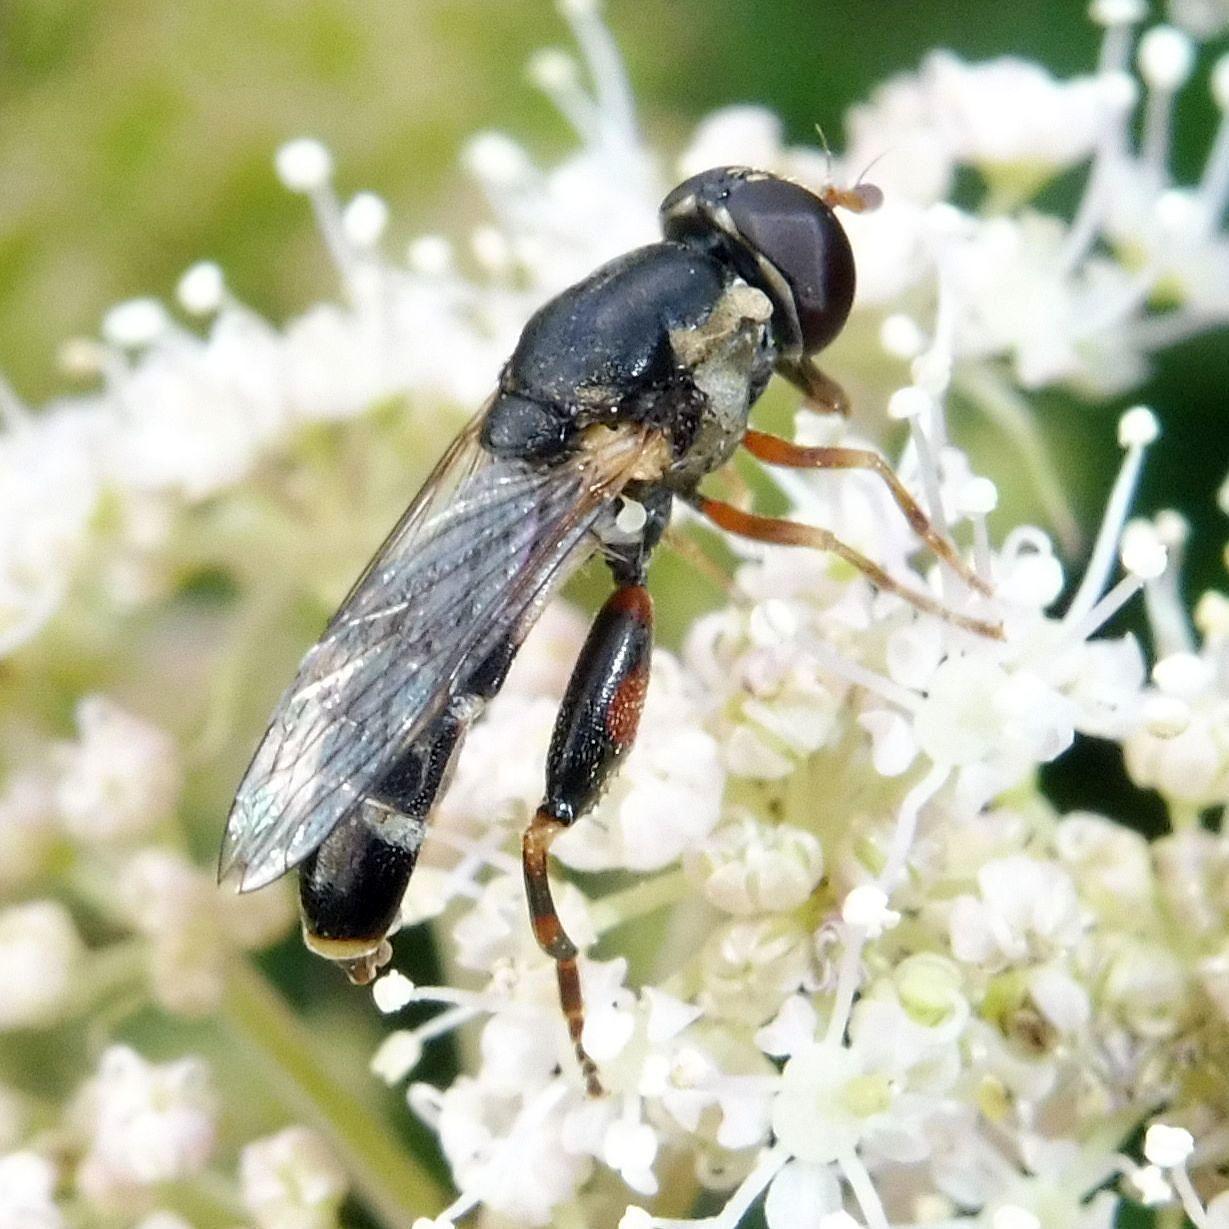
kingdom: Animalia
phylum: Arthropoda
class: Insecta
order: Diptera
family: Syrphidae
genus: Syritta
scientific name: Syritta pipiens
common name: Hover fly
